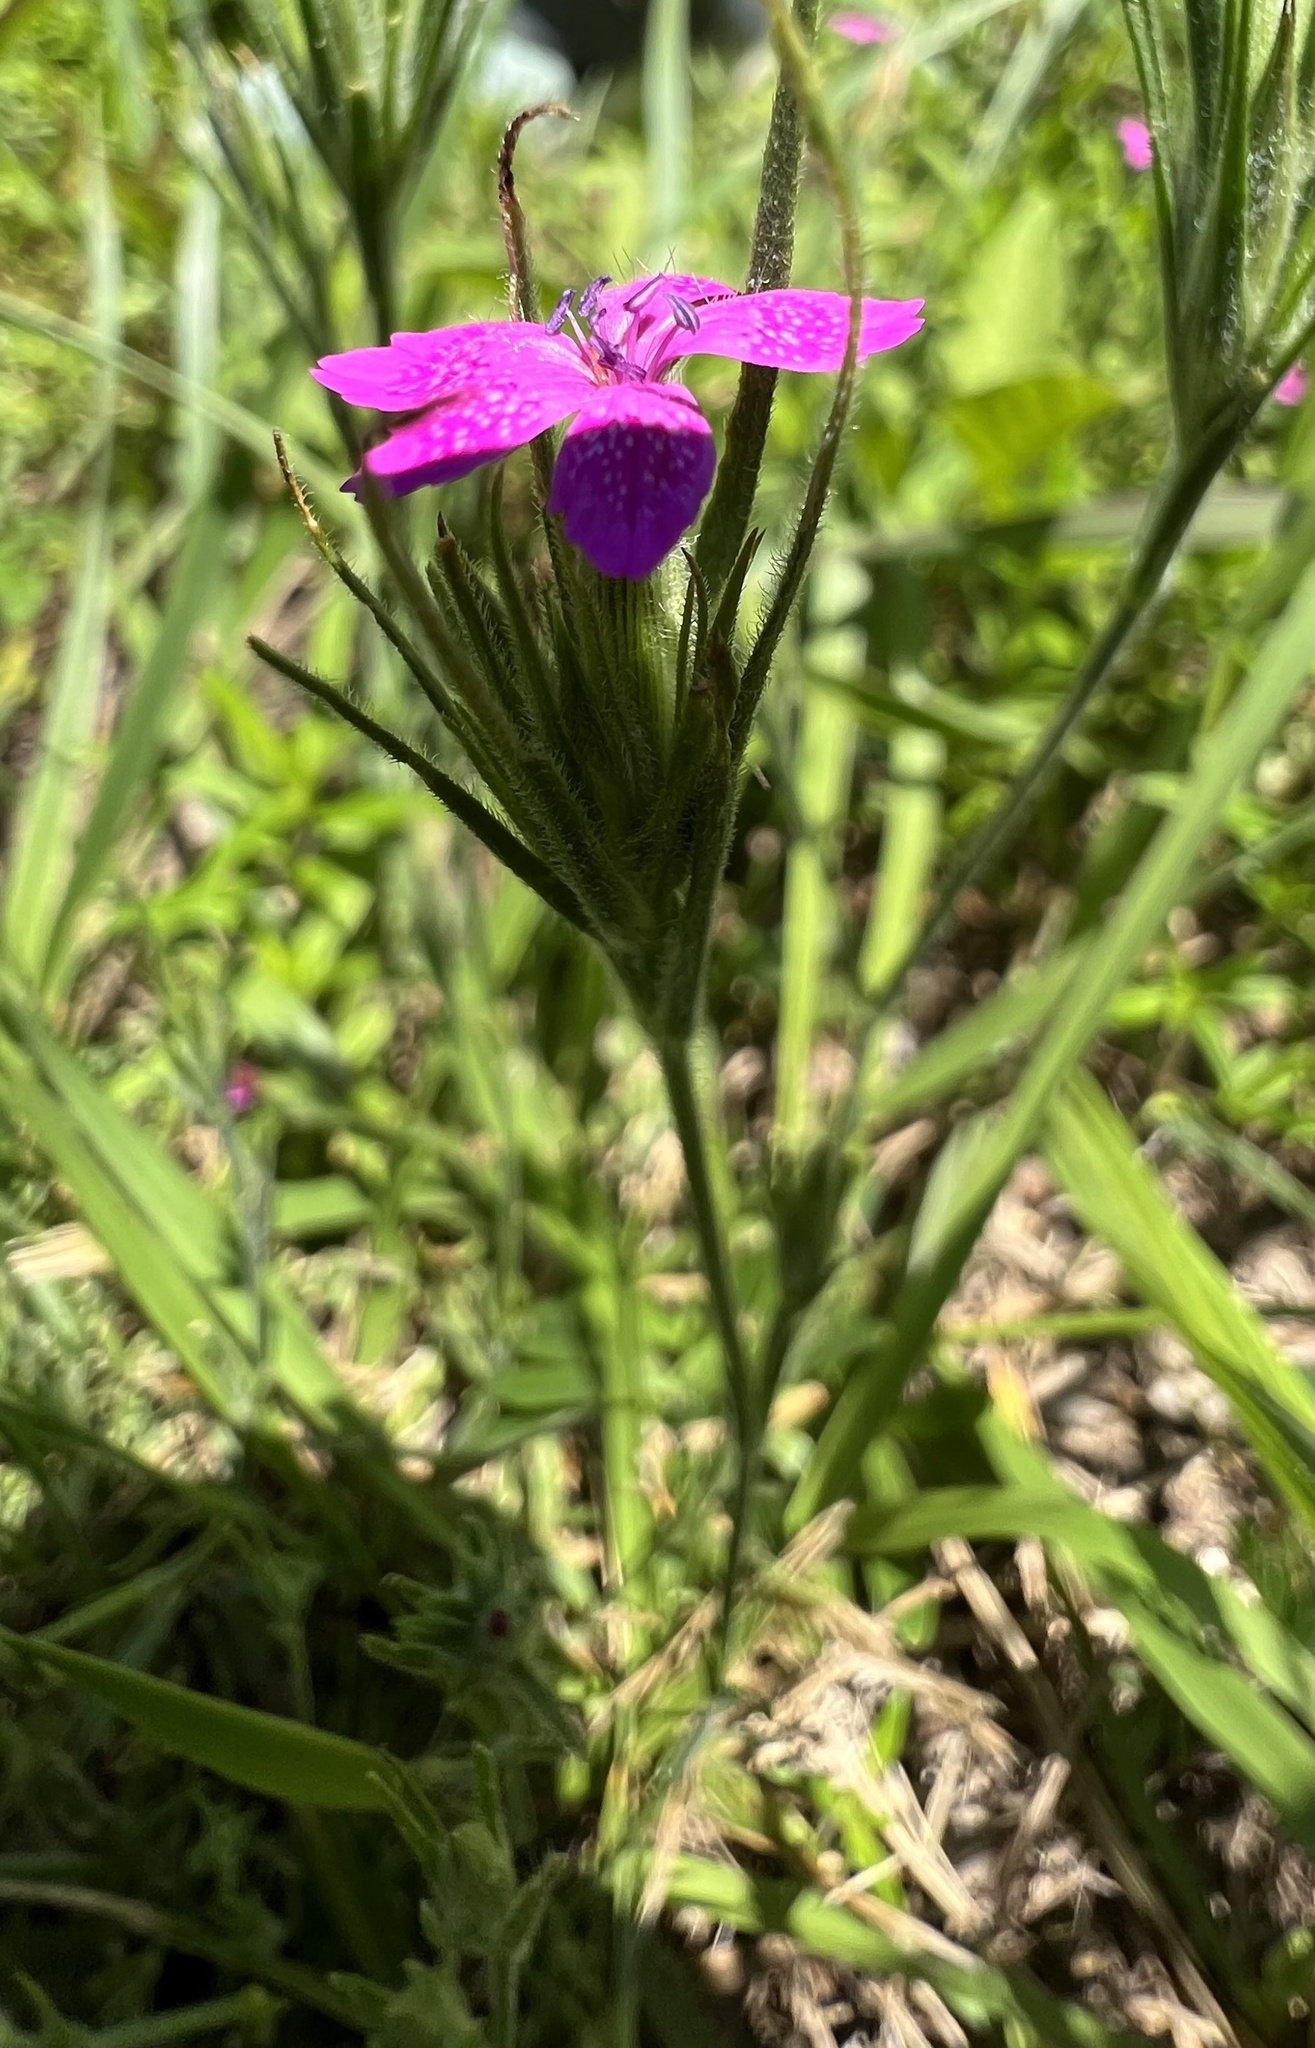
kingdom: Plantae
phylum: Tracheophyta
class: Magnoliopsida
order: Caryophyllales
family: Caryophyllaceae
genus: Dianthus
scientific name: Dianthus armeria
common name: Deptford pink
